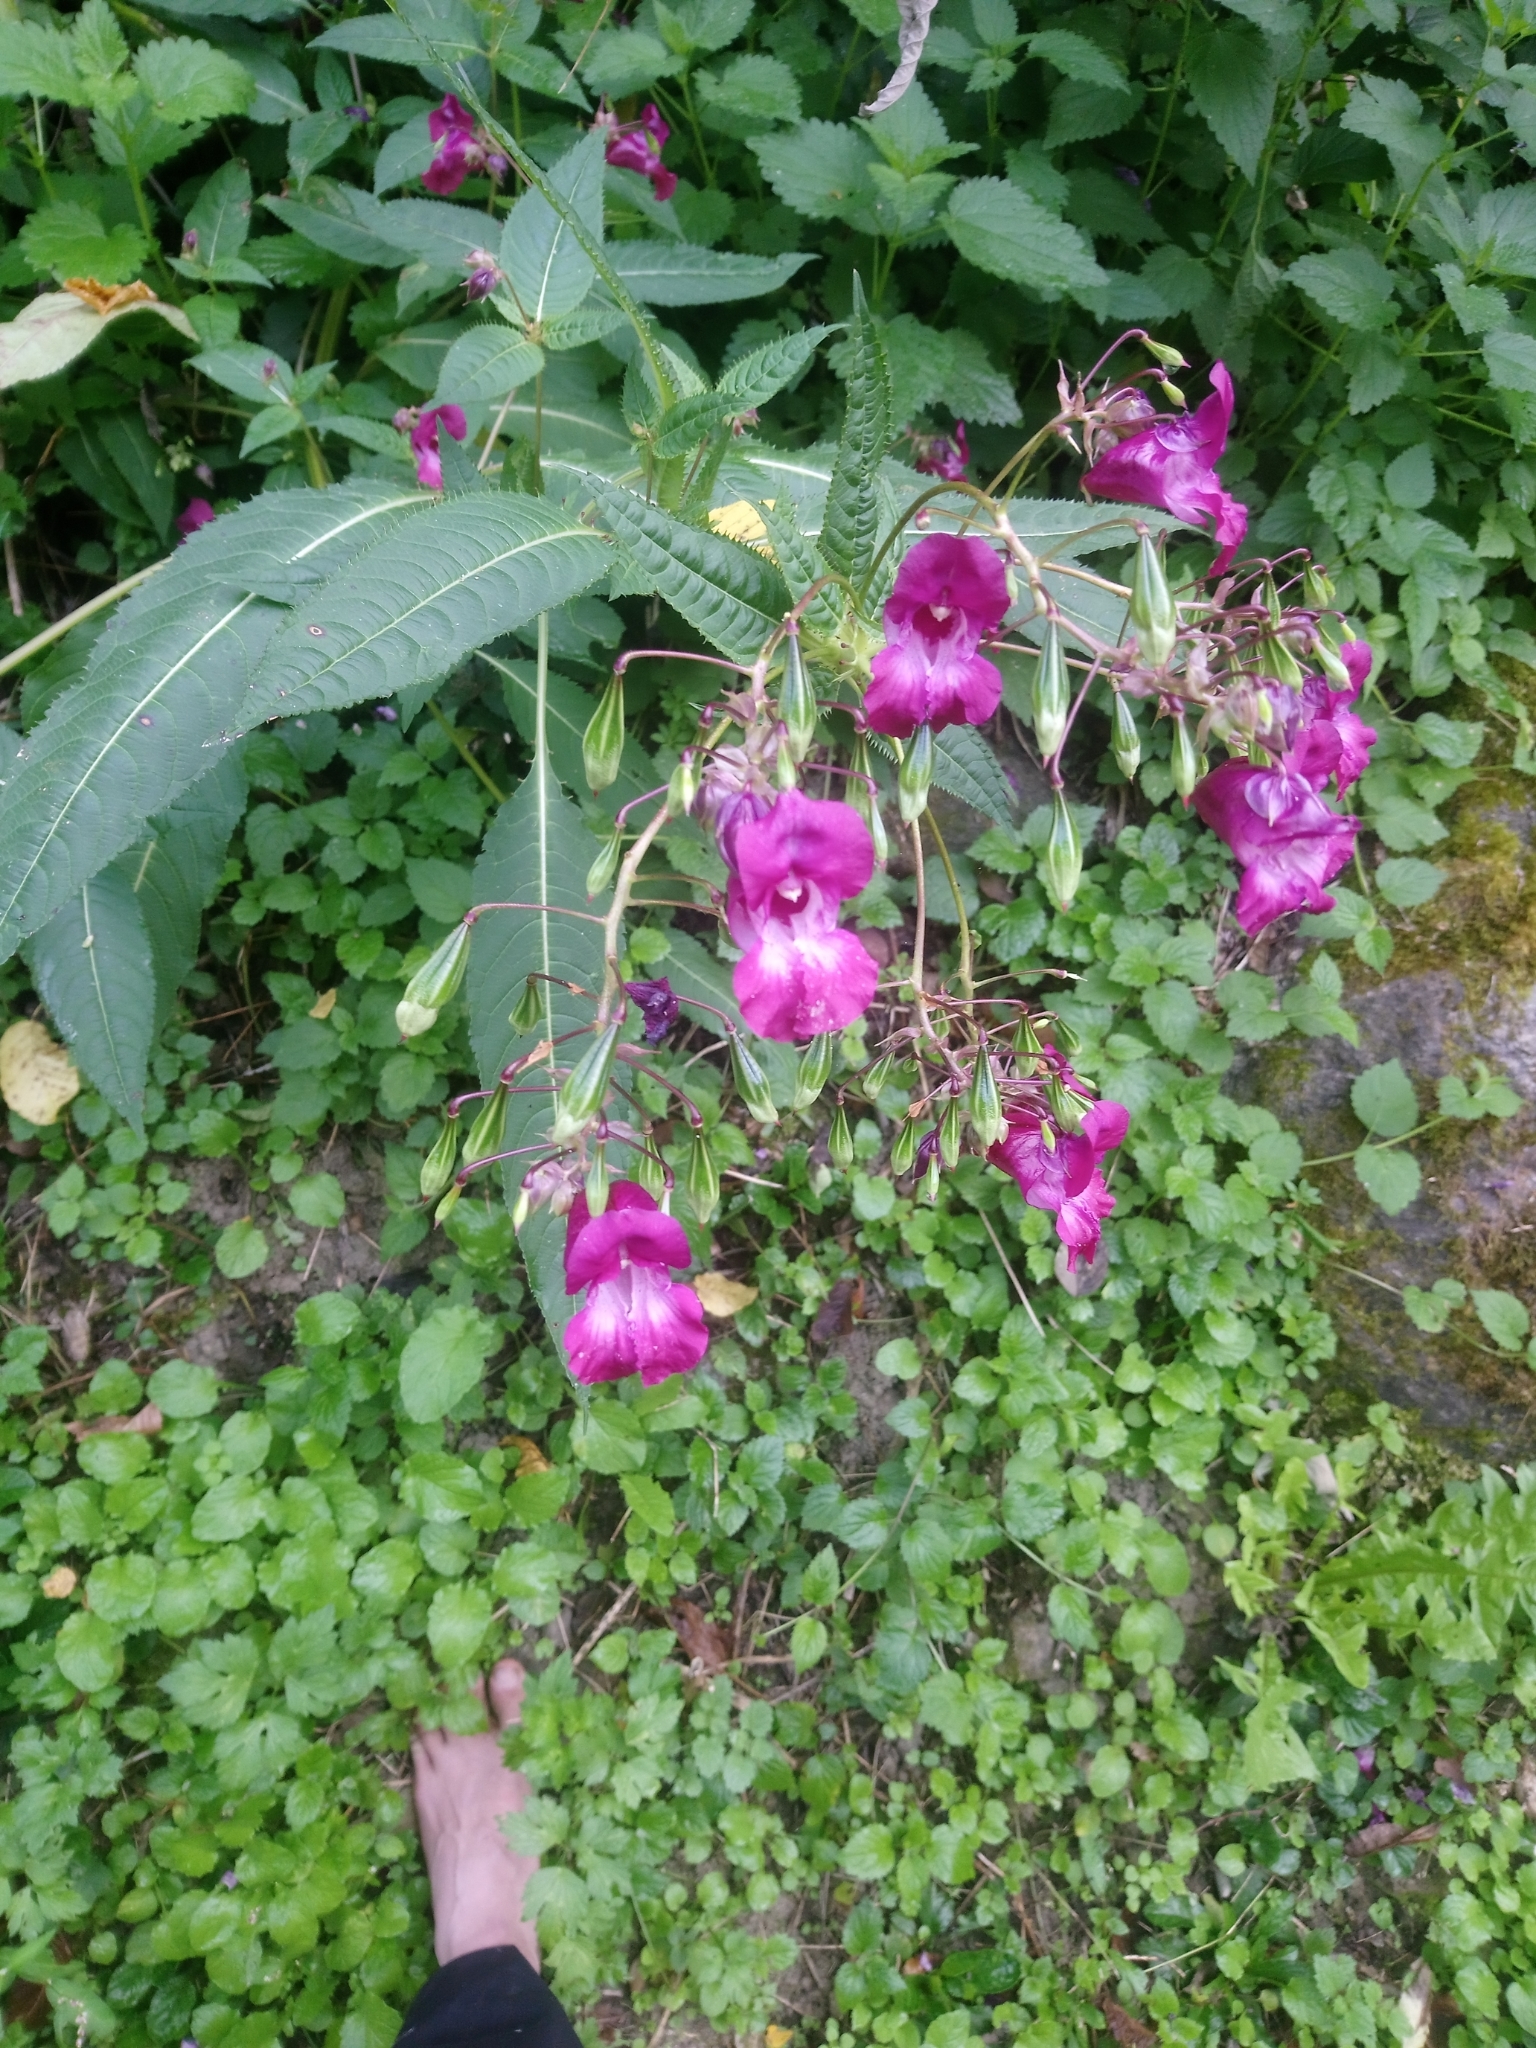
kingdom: Plantae
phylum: Tracheophyta
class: Magnoliopsida
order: Ericales
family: Balsaminaceae
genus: Impatiens
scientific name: Impatiens glandulifera
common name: Himalayan balsam
